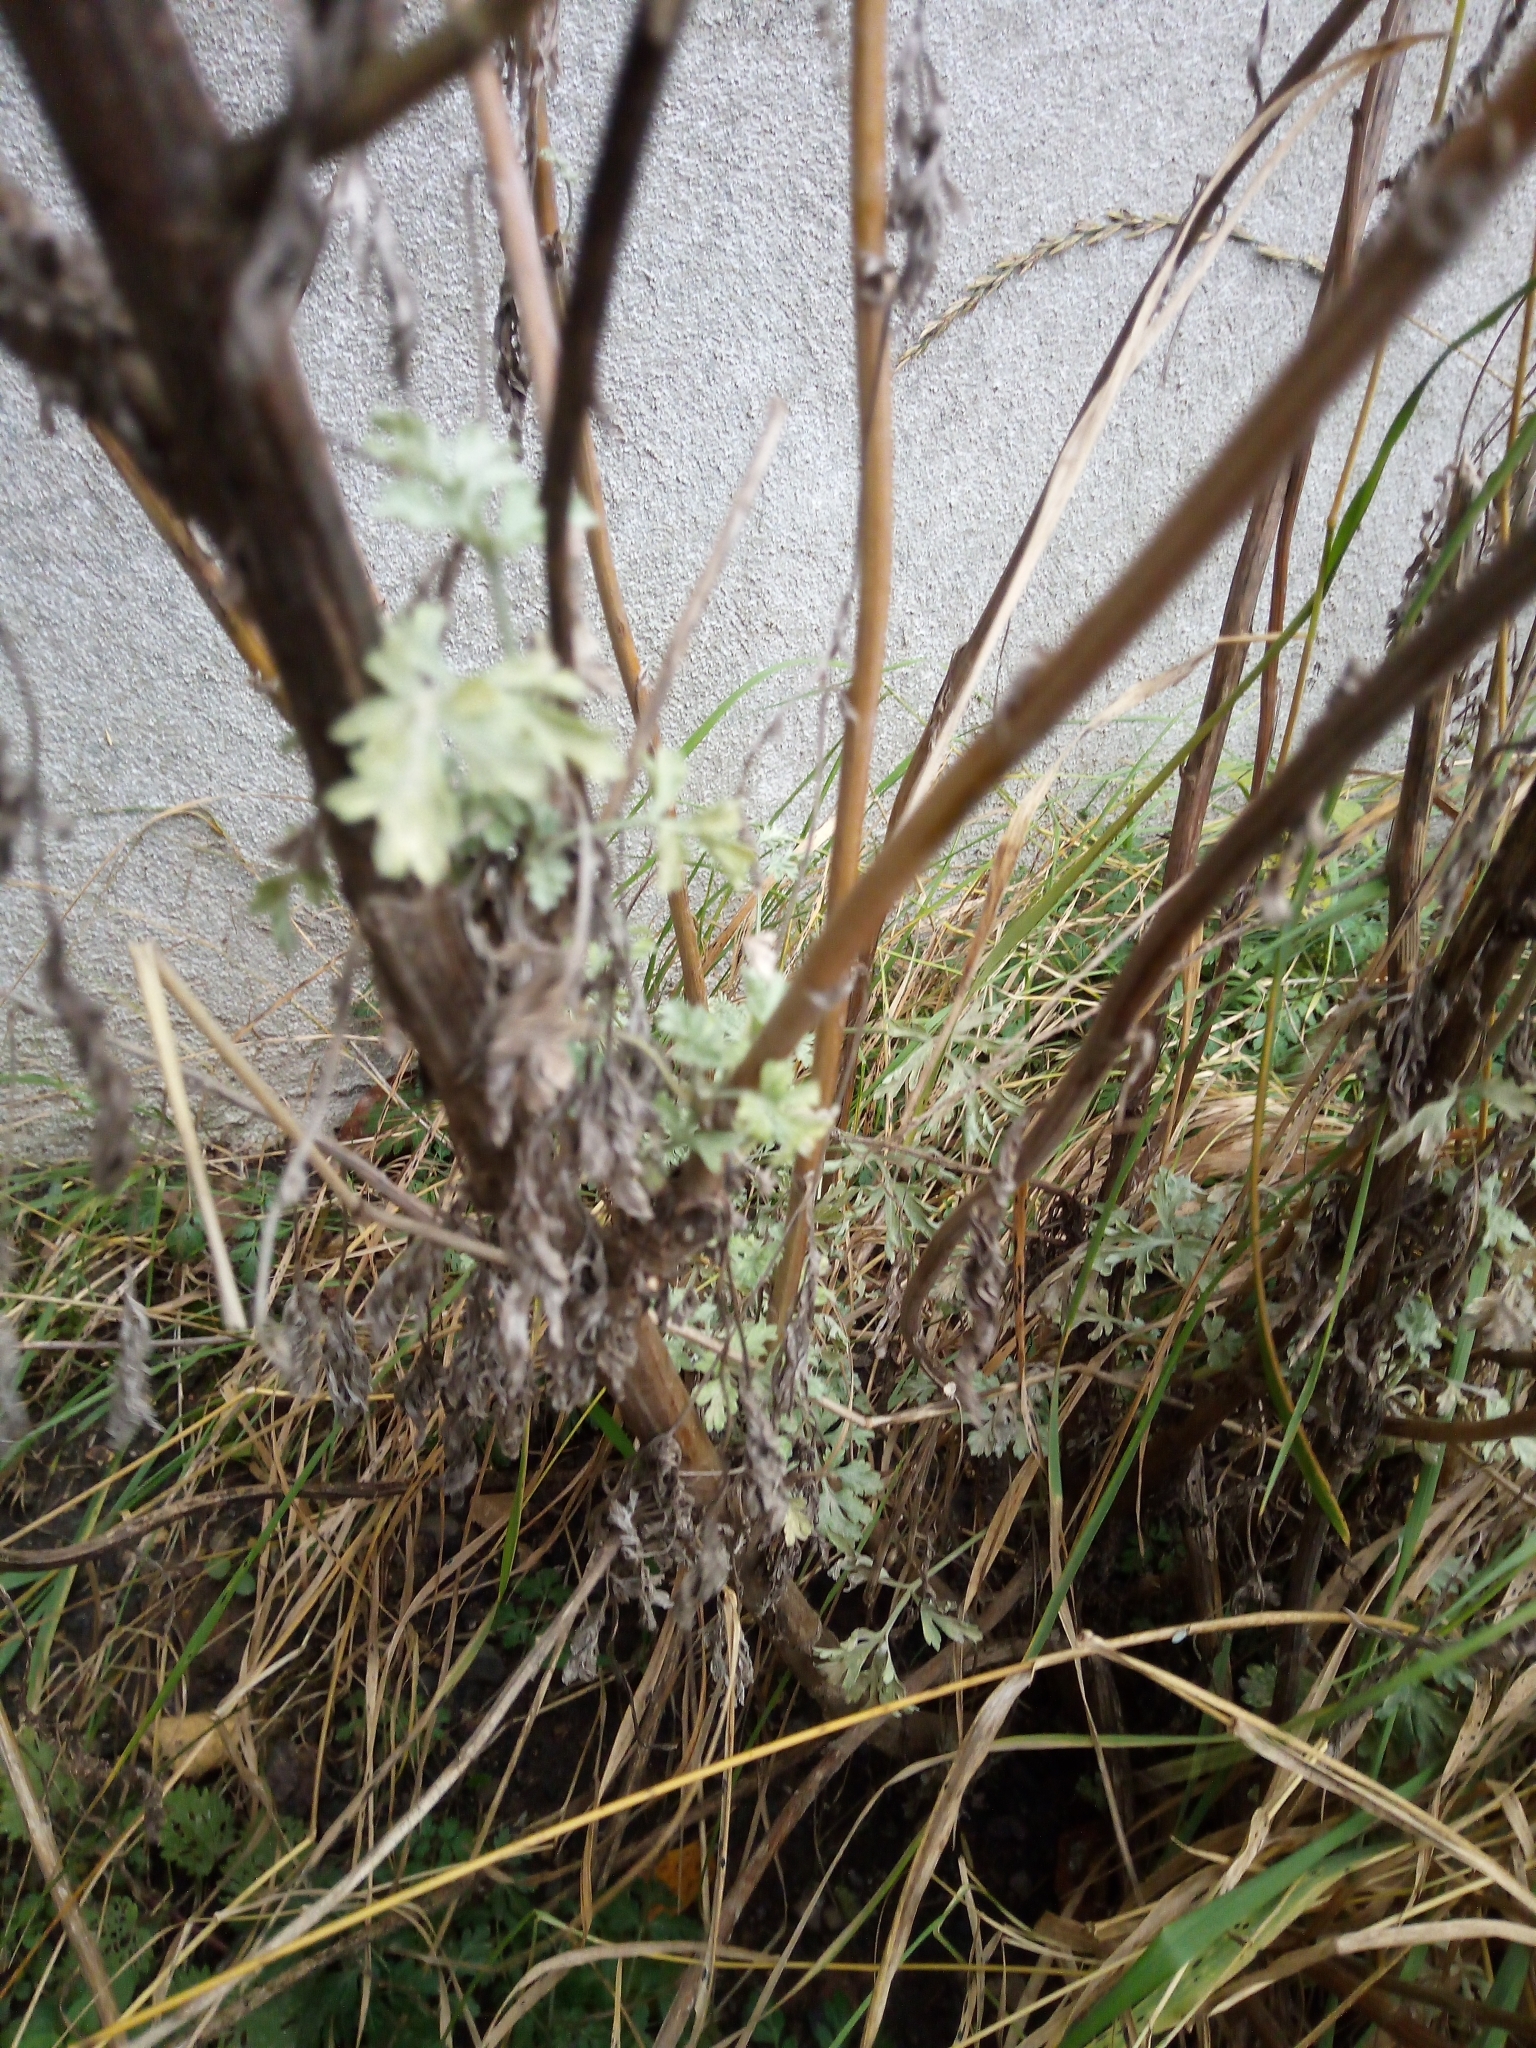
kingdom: Plantae
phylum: Tracheophyta
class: Magnoliopsida
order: Asterales
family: Asteraceae
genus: Artemisia
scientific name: Artemisia absinthium
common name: Wormwood
